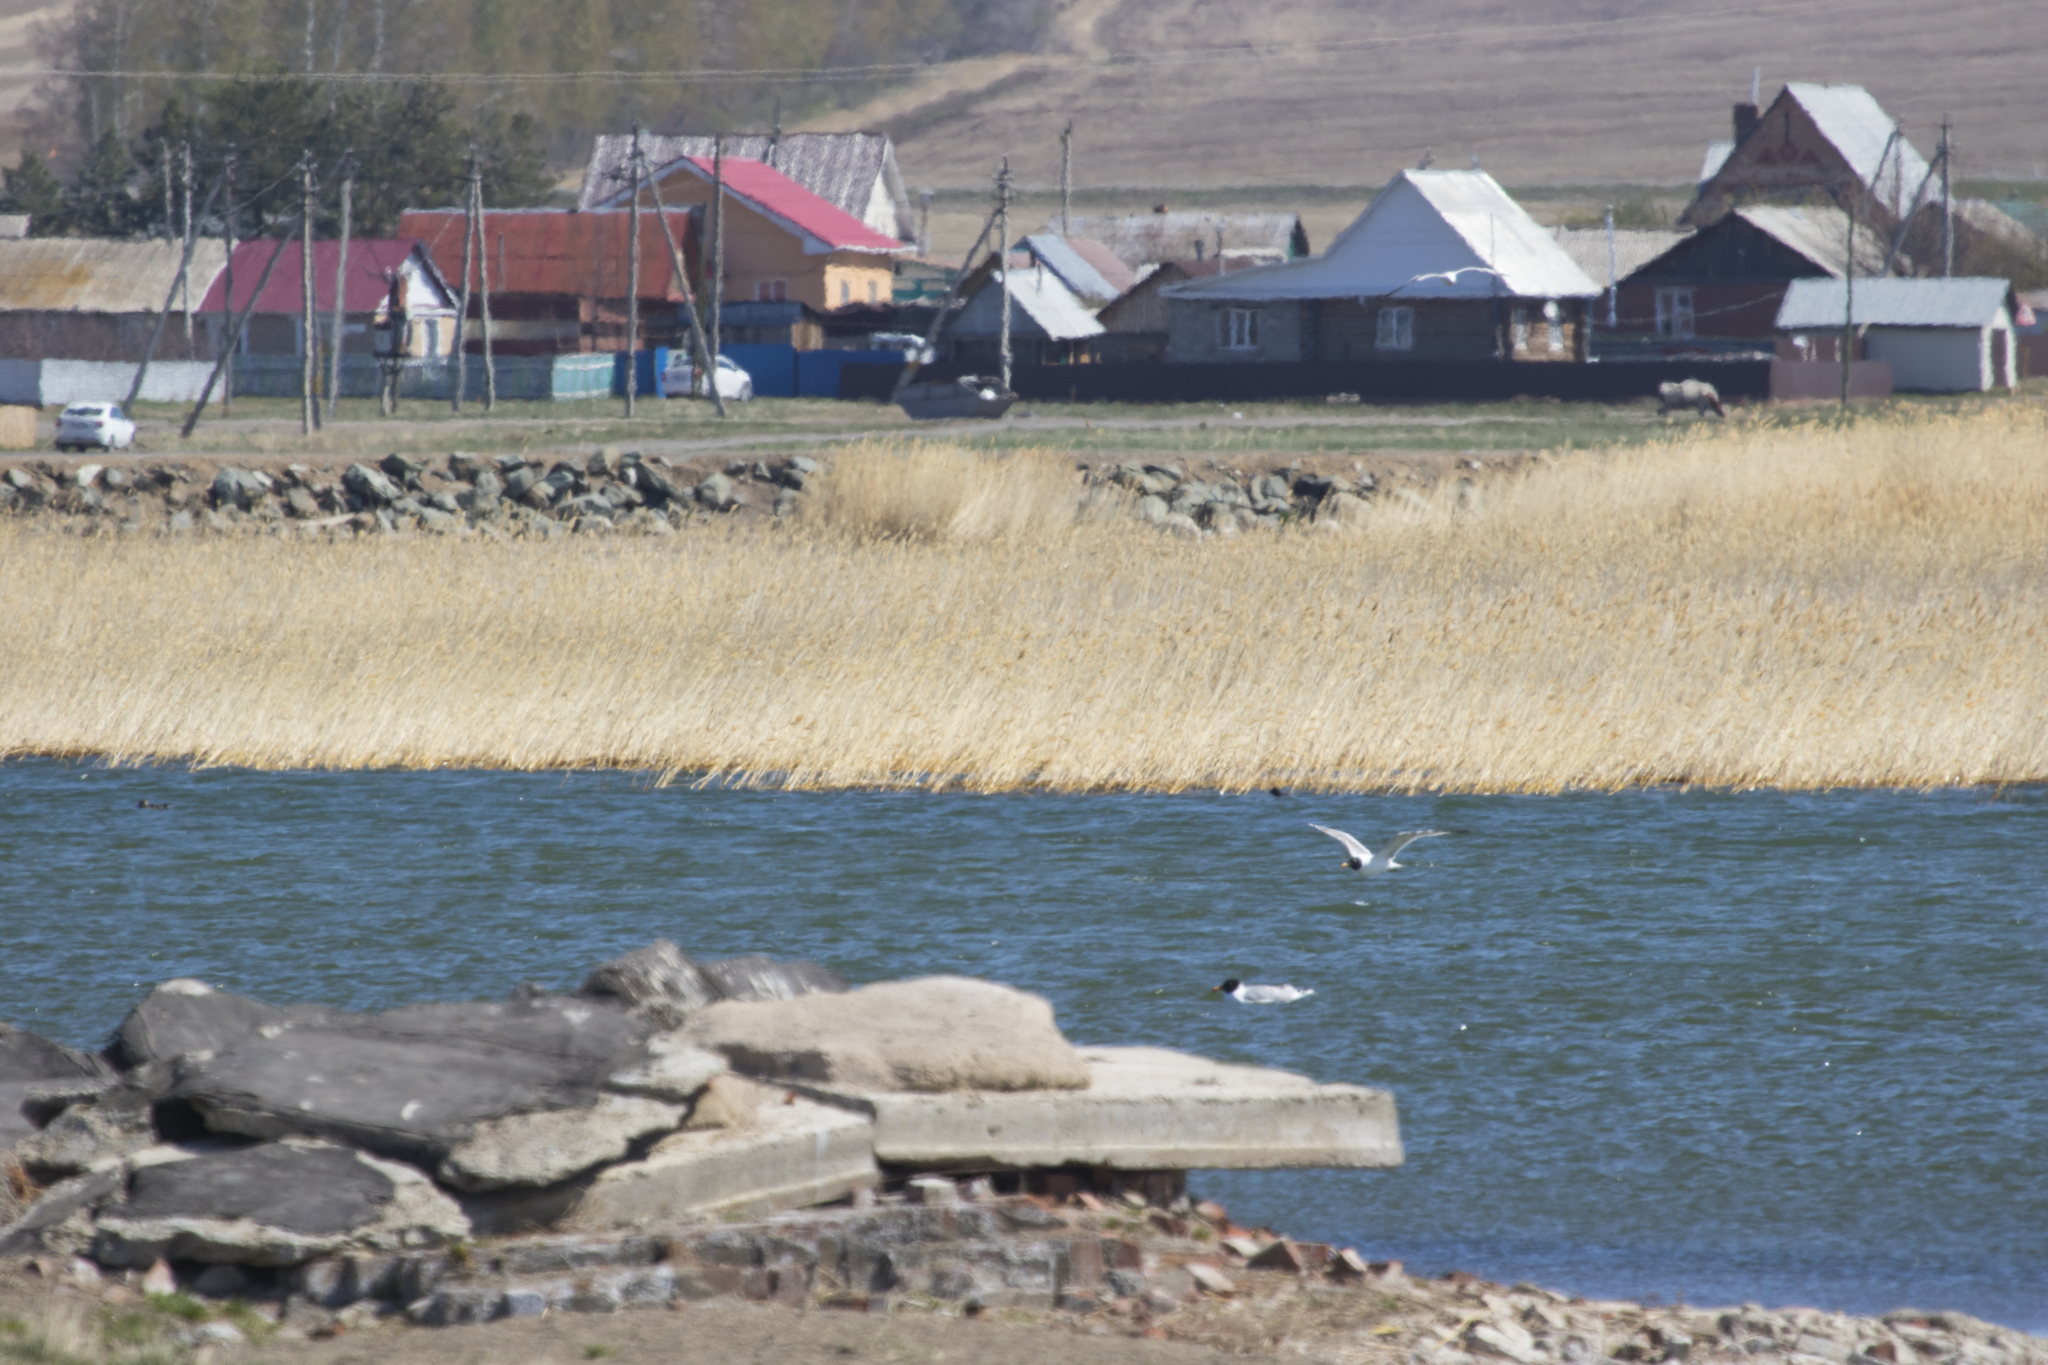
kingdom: Animalia
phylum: Chordata
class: Aves
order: Charadriiformes
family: Laridae
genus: Ichthyaetus
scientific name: Ichthyaetus ichthyaetus
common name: Pallas's gull
